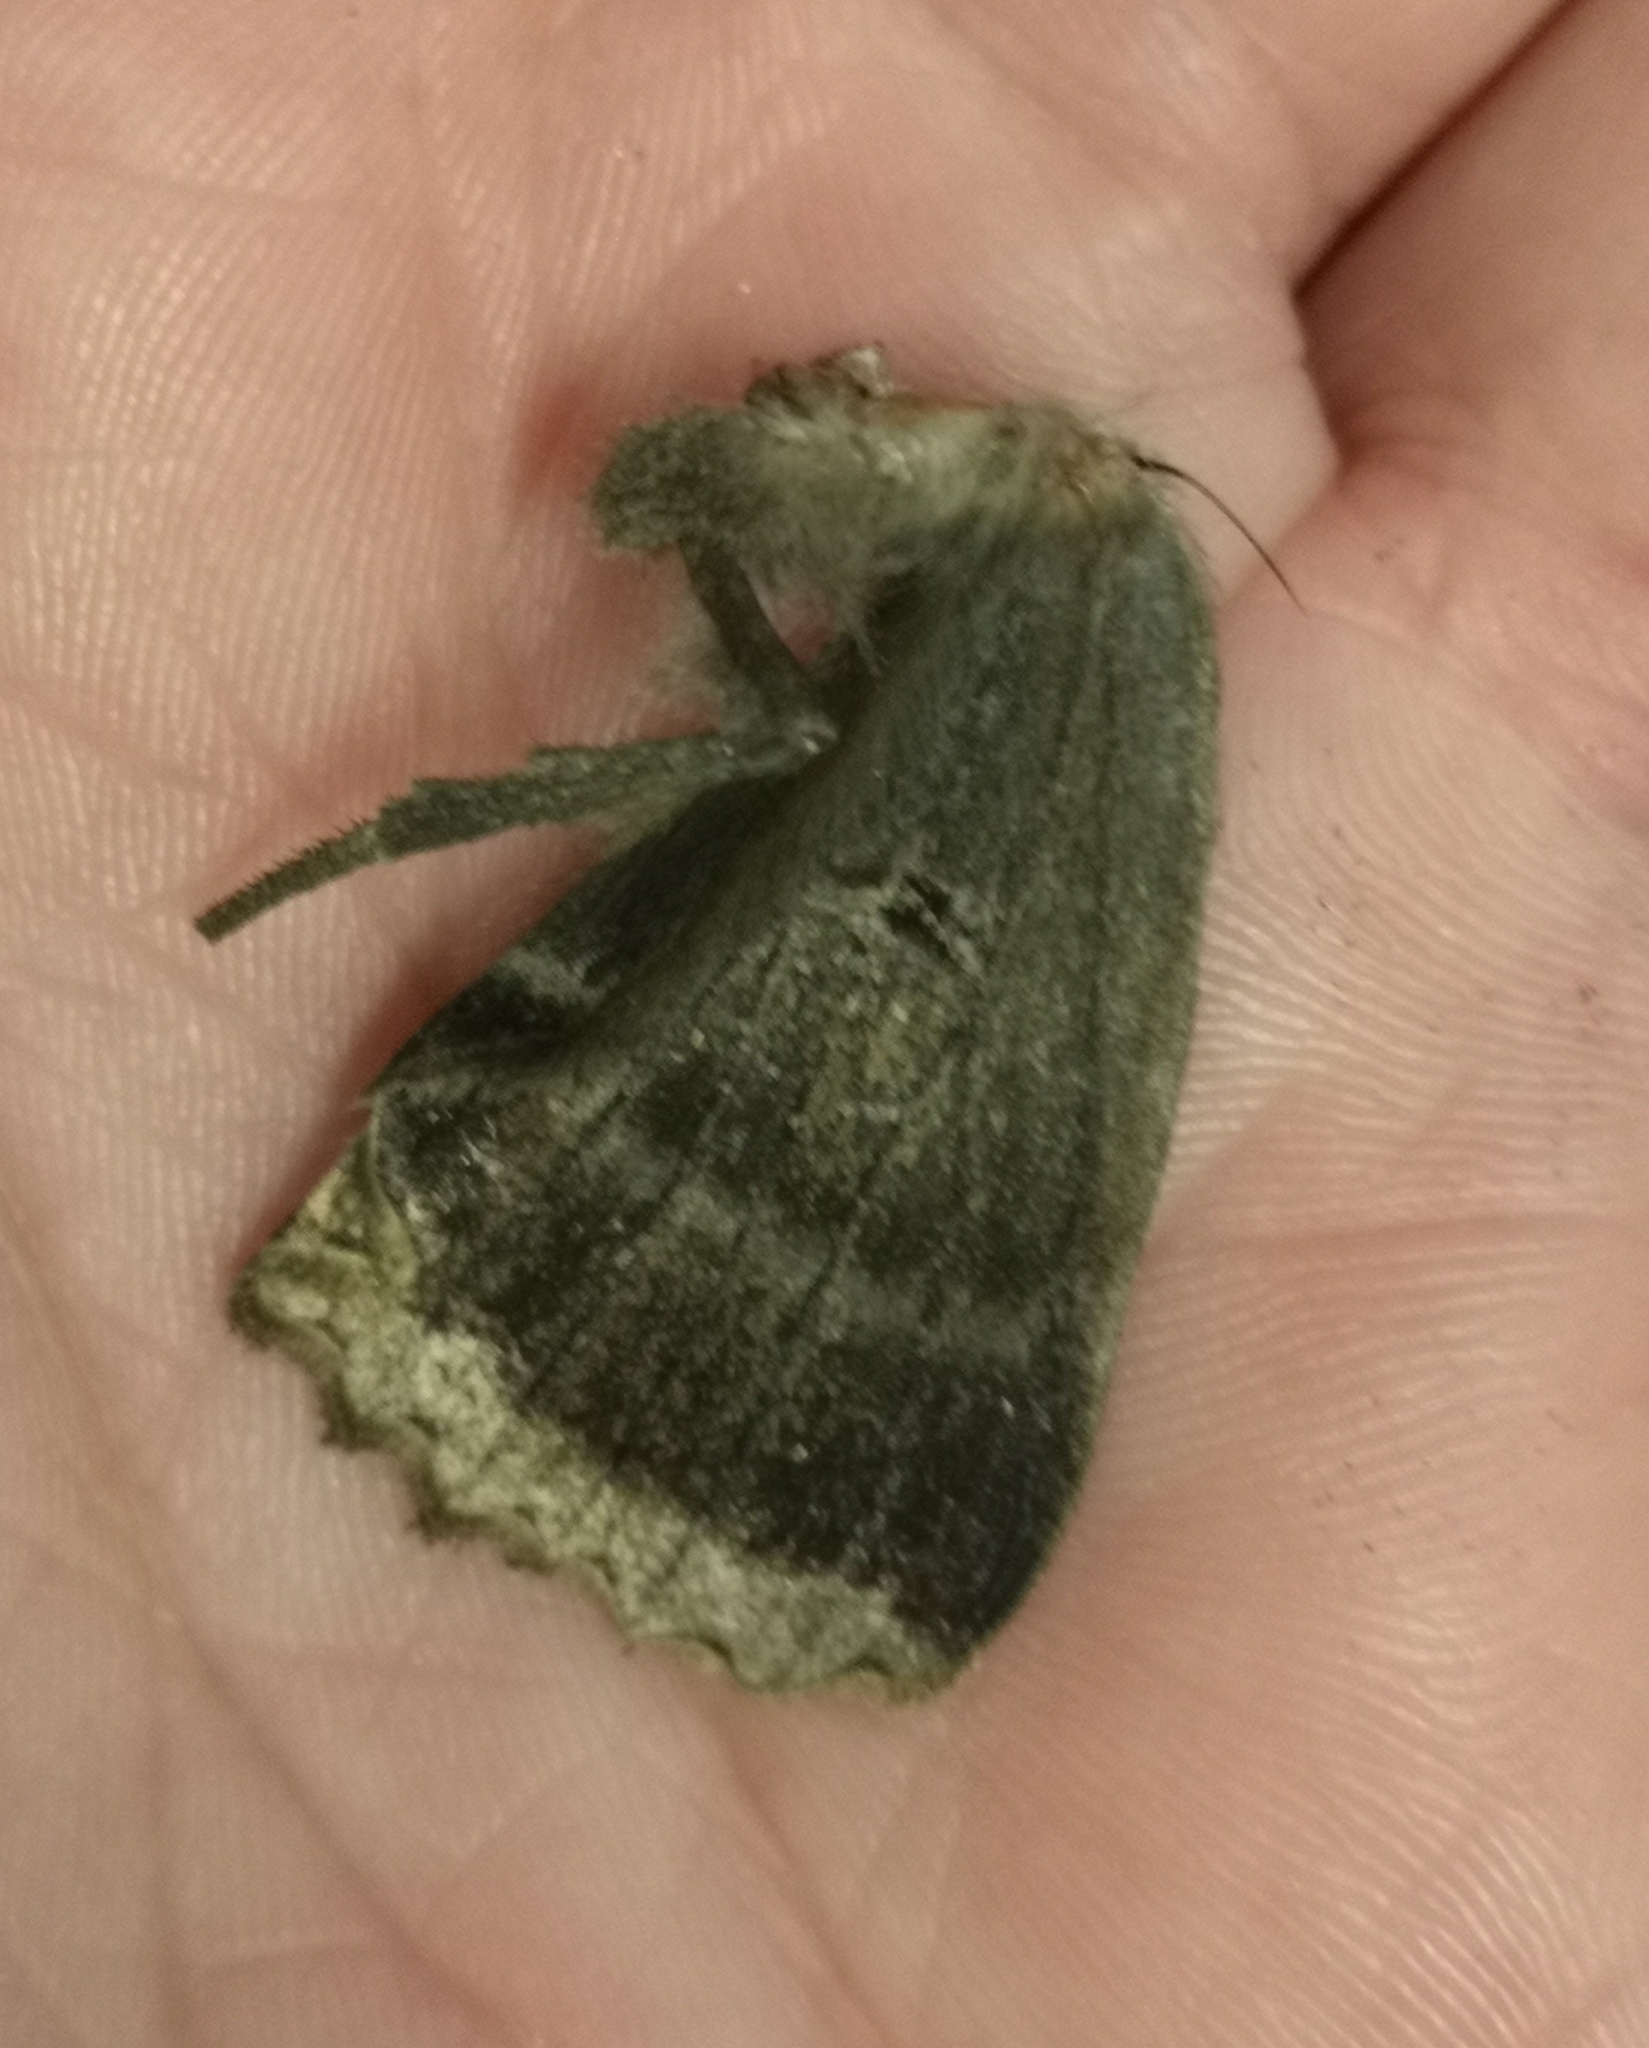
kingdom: Animalia
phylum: Arthropoda
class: Insecta
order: Lepidoptera
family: Noctuidae
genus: Mormo
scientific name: Mormo maura
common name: Old lady
